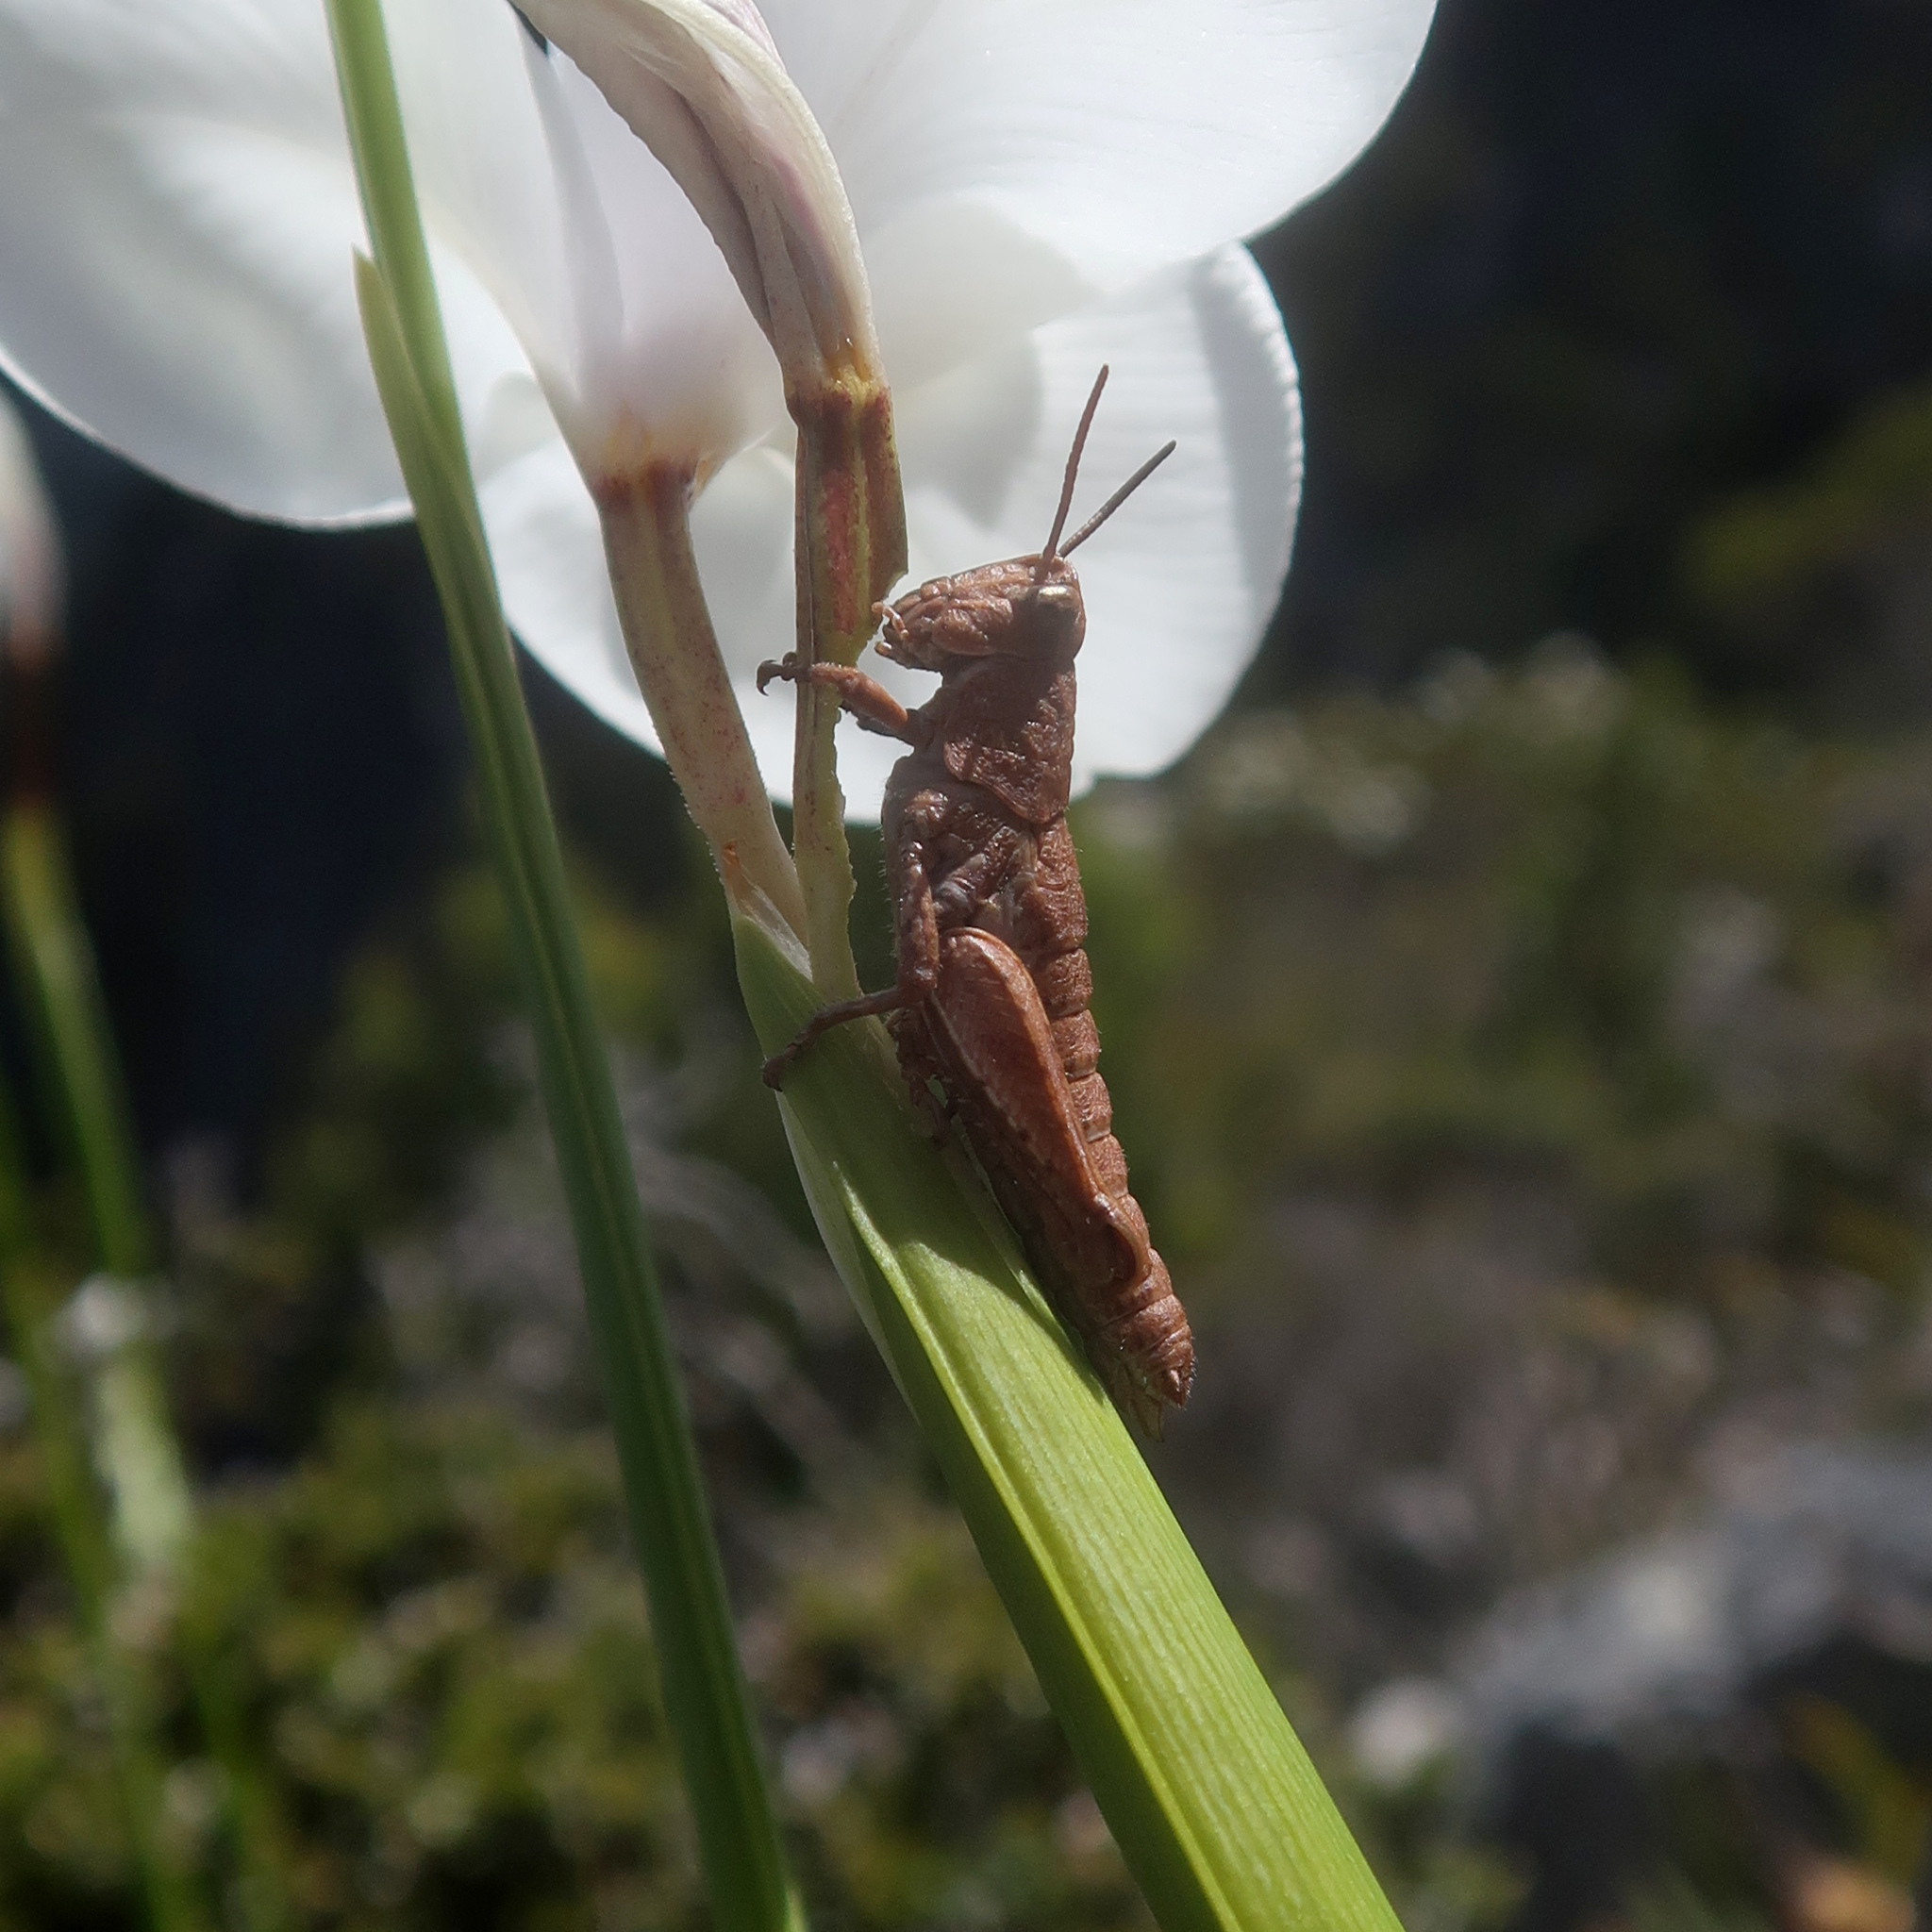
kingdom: Animalia
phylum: Arthropoda
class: Insecta
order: Orthoptera
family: Acrididae
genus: Tasmaniacris
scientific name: Tasmaniacris tasmaniensis
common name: Tasmanian grasshopper
